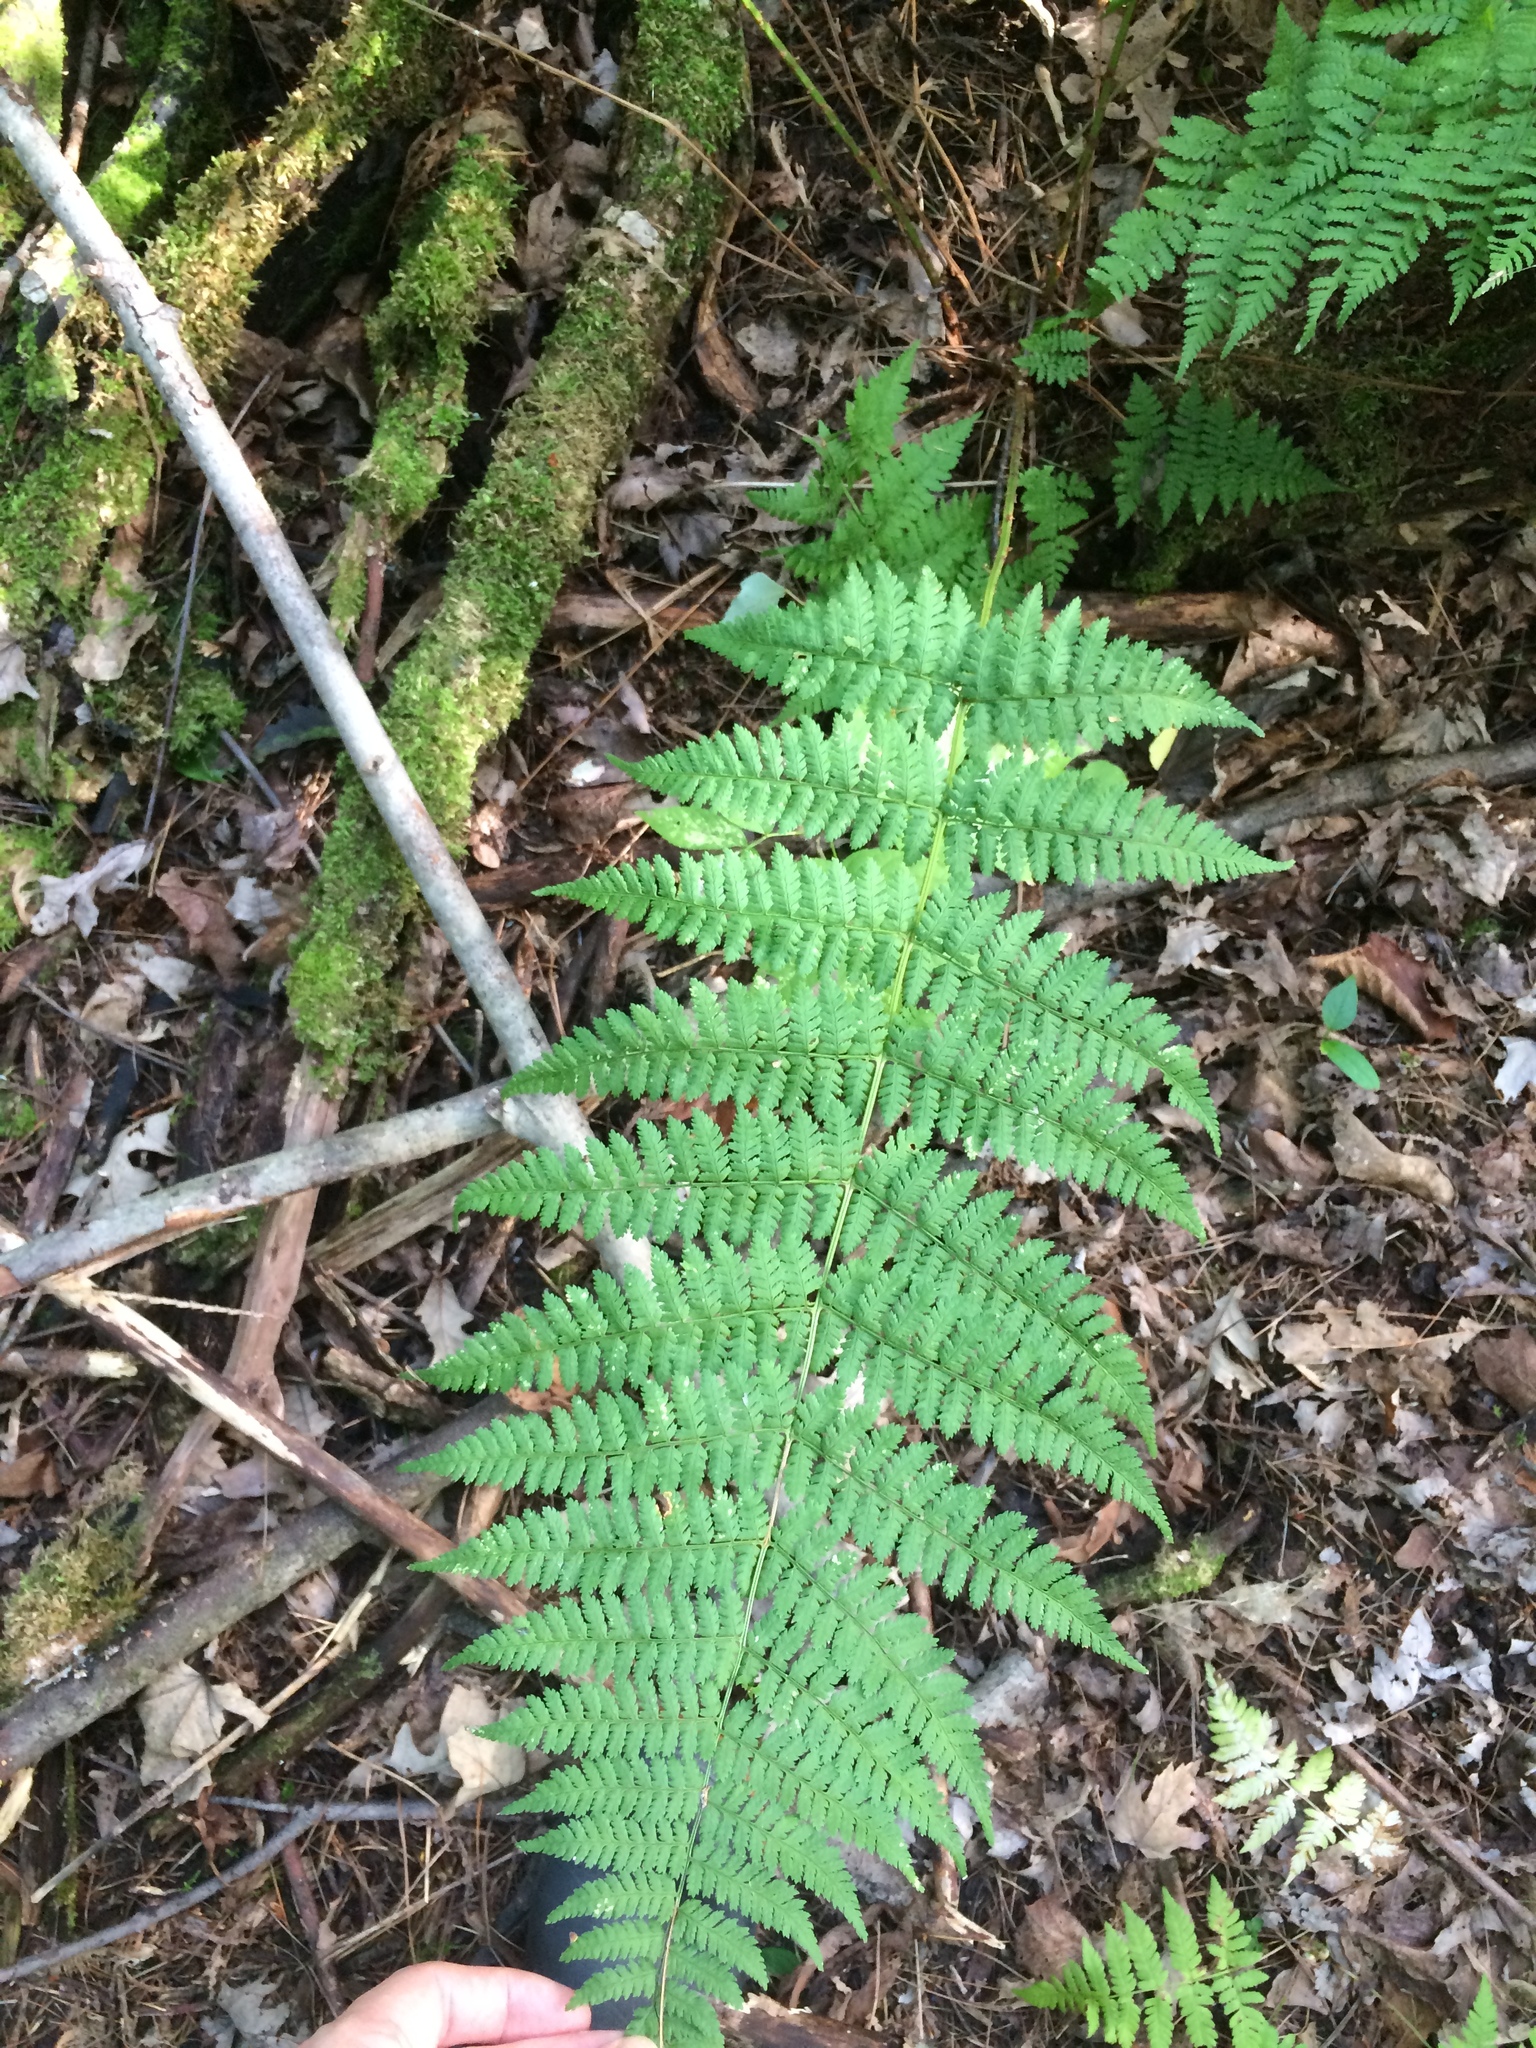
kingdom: Plantae
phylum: Tracheophyta
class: Polypodiopsida
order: Polypodiales
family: Dryopteridaceae
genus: Dryopteris
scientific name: Dryopteris intermedia
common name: Evergreen wood fern
